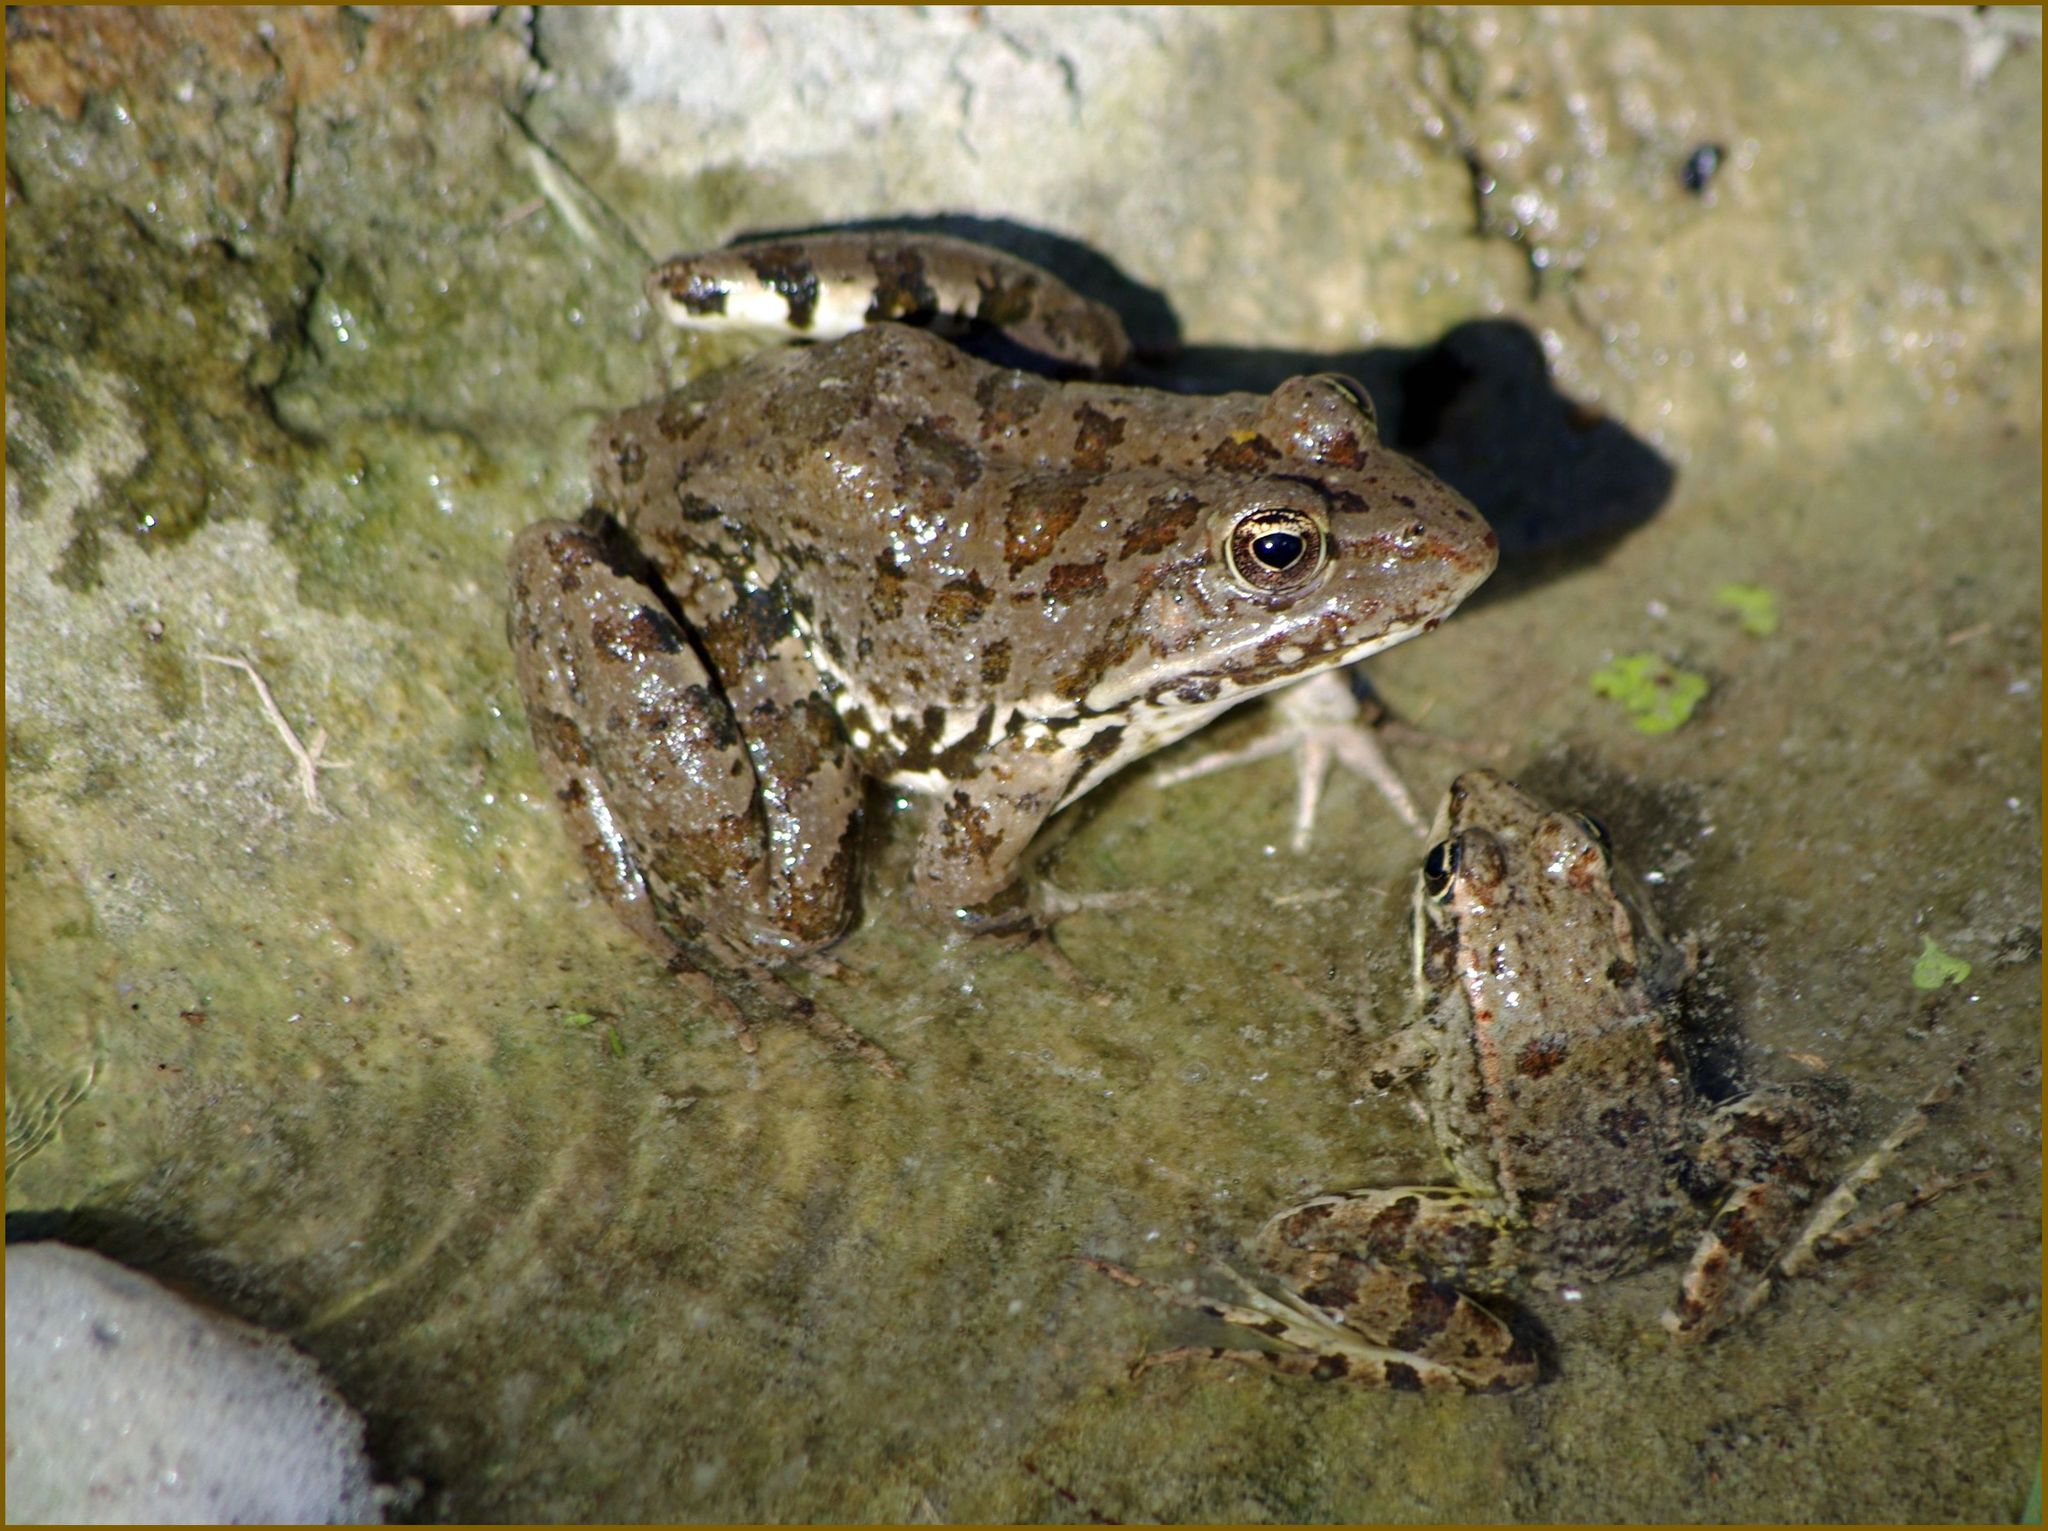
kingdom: Animalia
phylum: Chordata
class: Amphibia
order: Anura
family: Ranidae
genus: Pelophylax
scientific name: Pelophylax ridibundus
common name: Marsh frog
